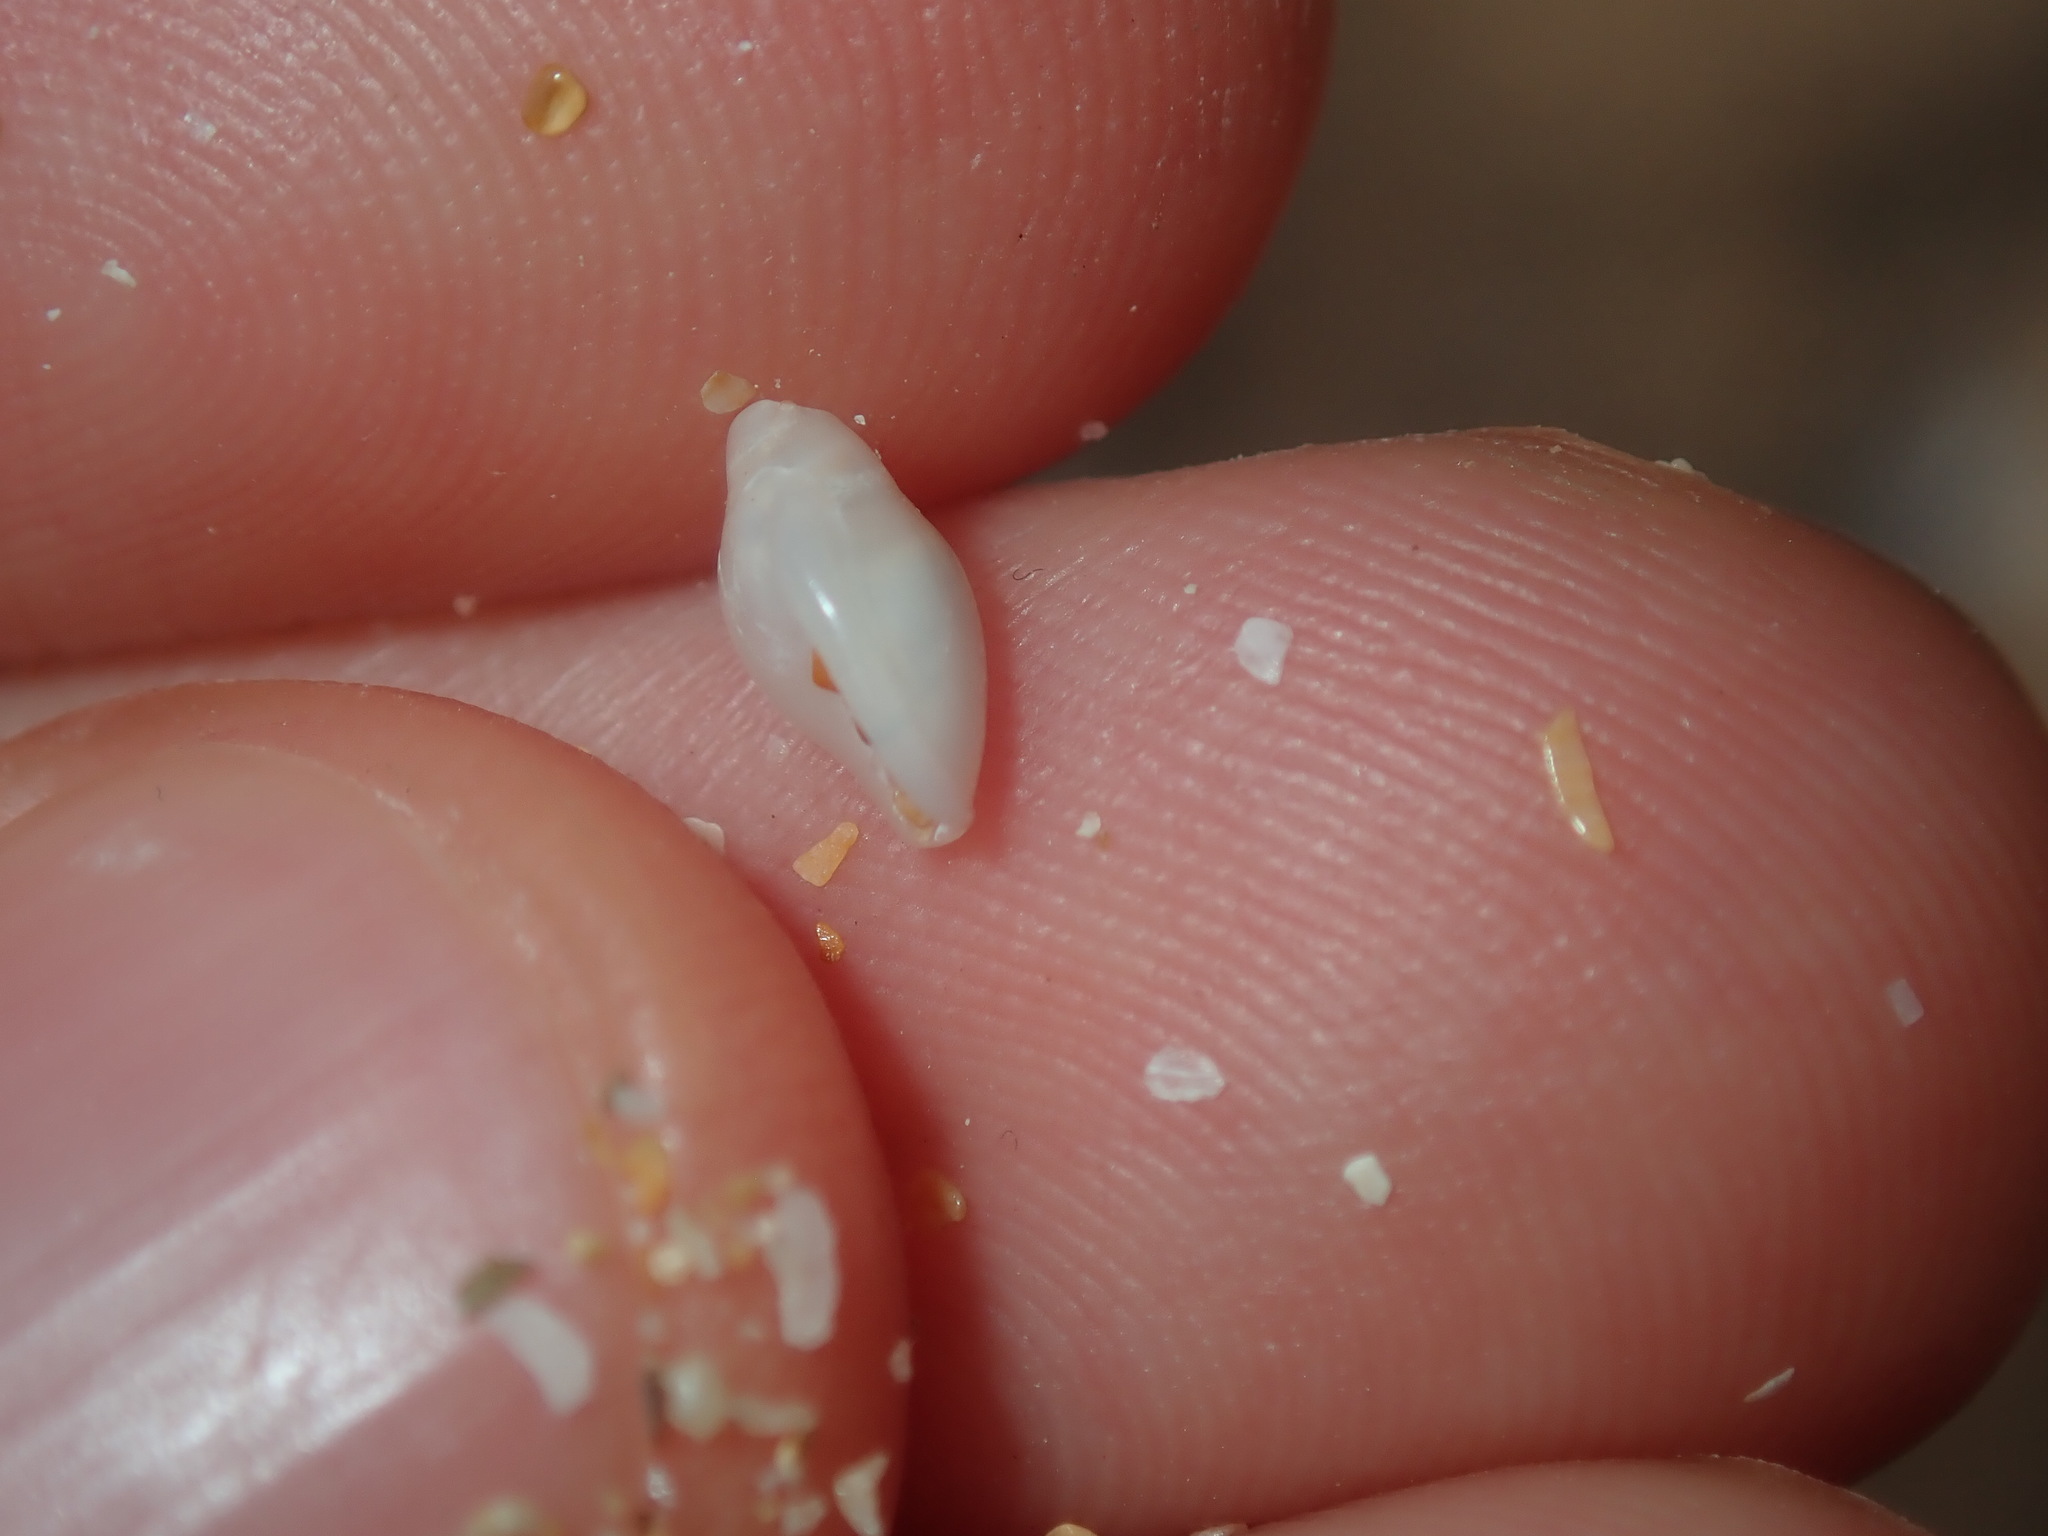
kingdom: Animalia
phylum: Mollusca
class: Gastropoda
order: Neogastropoda
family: Marginellidae
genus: Austroginella
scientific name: Austroginella johnstoni
